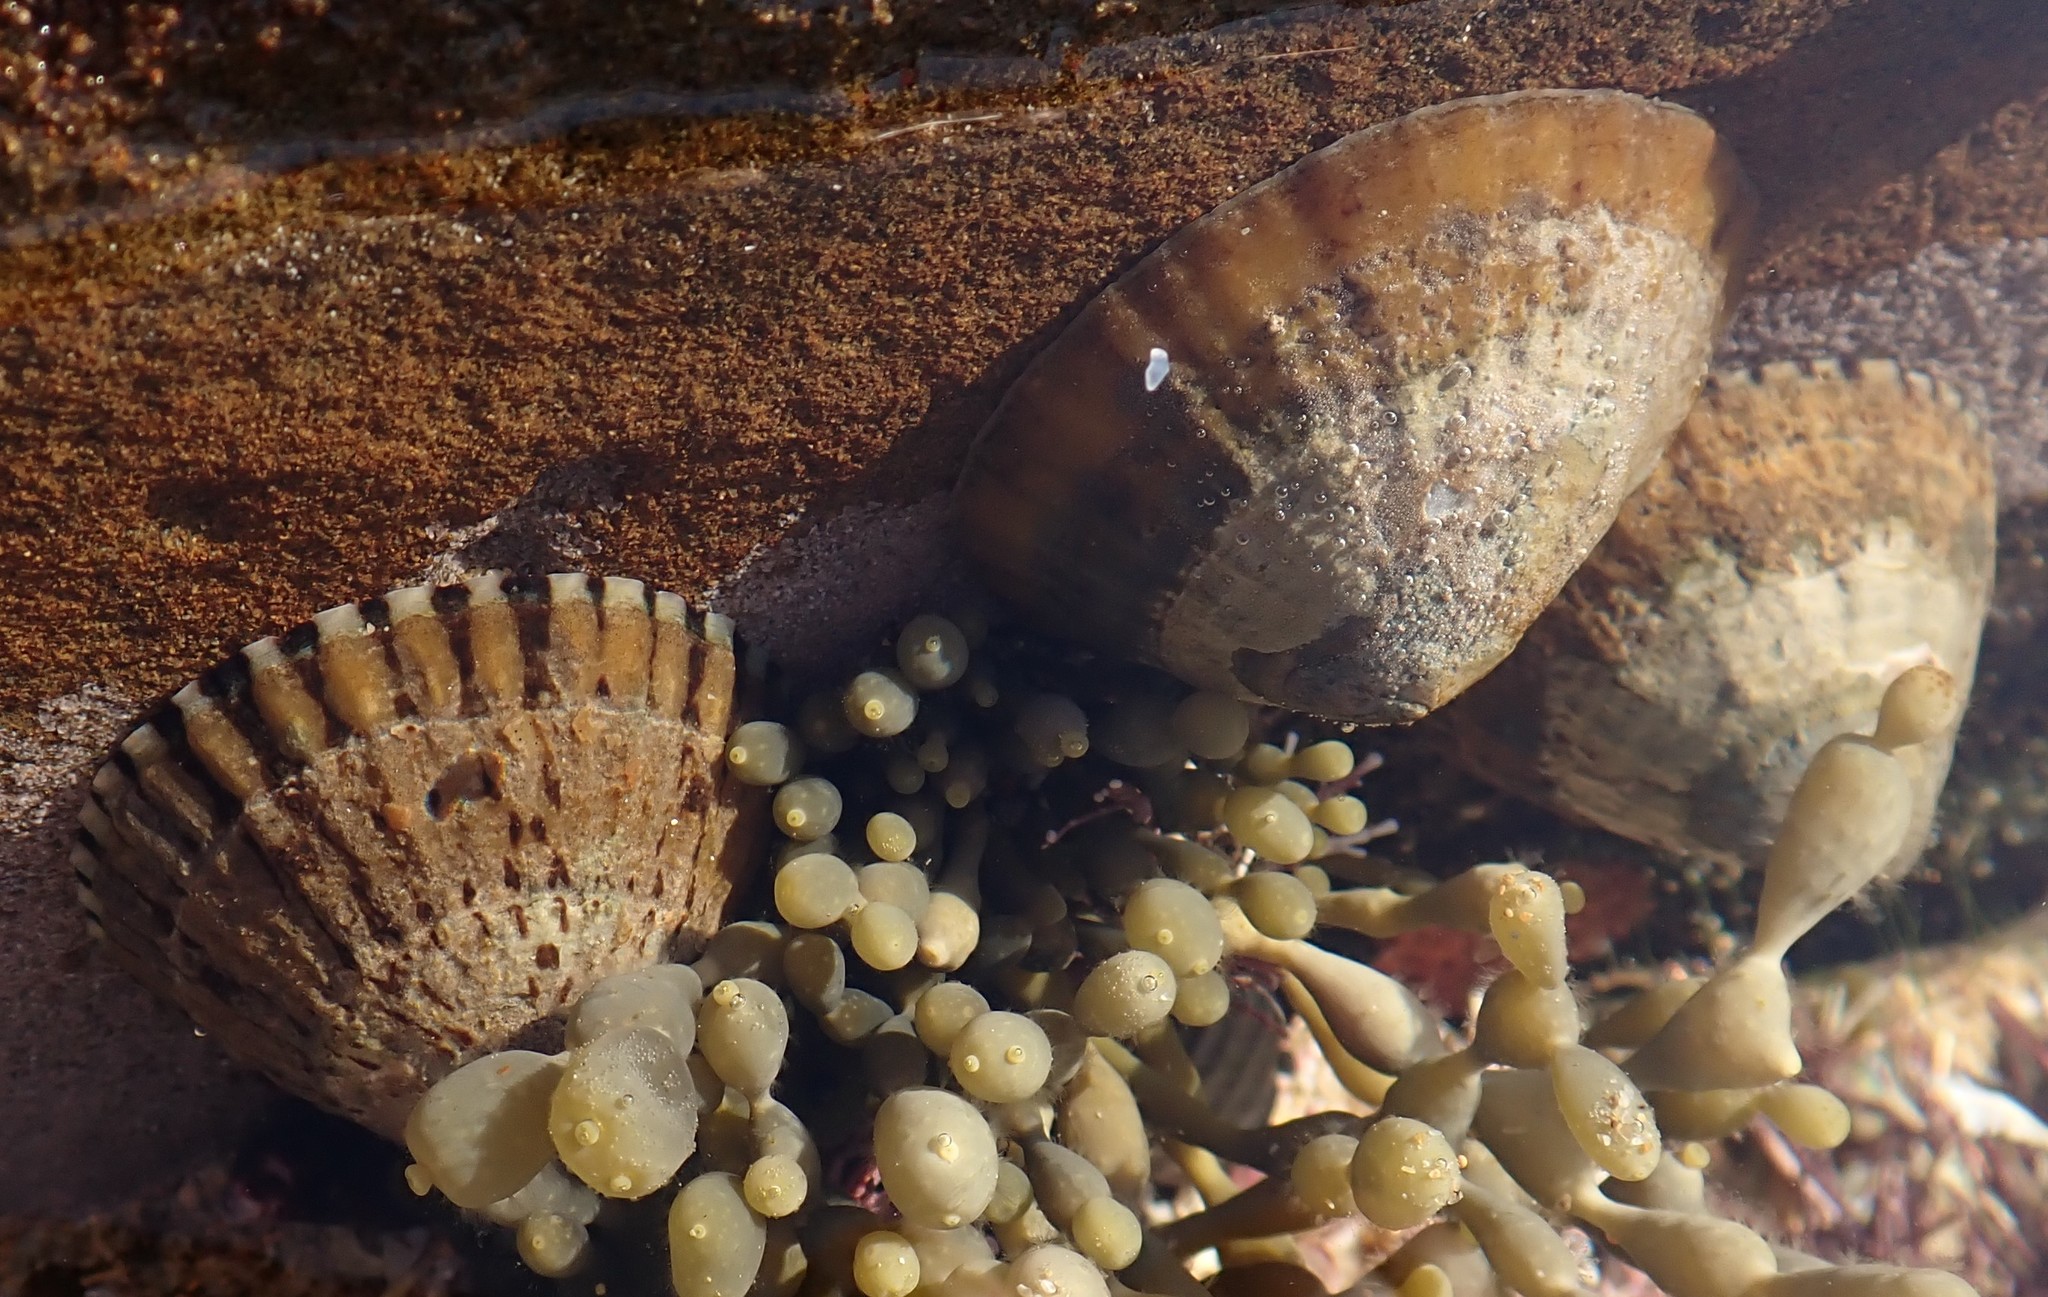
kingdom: Animalia
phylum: Mollusca
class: Gastropoda
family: Nacellidae
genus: Cellana
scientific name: Cellana tramoserica
